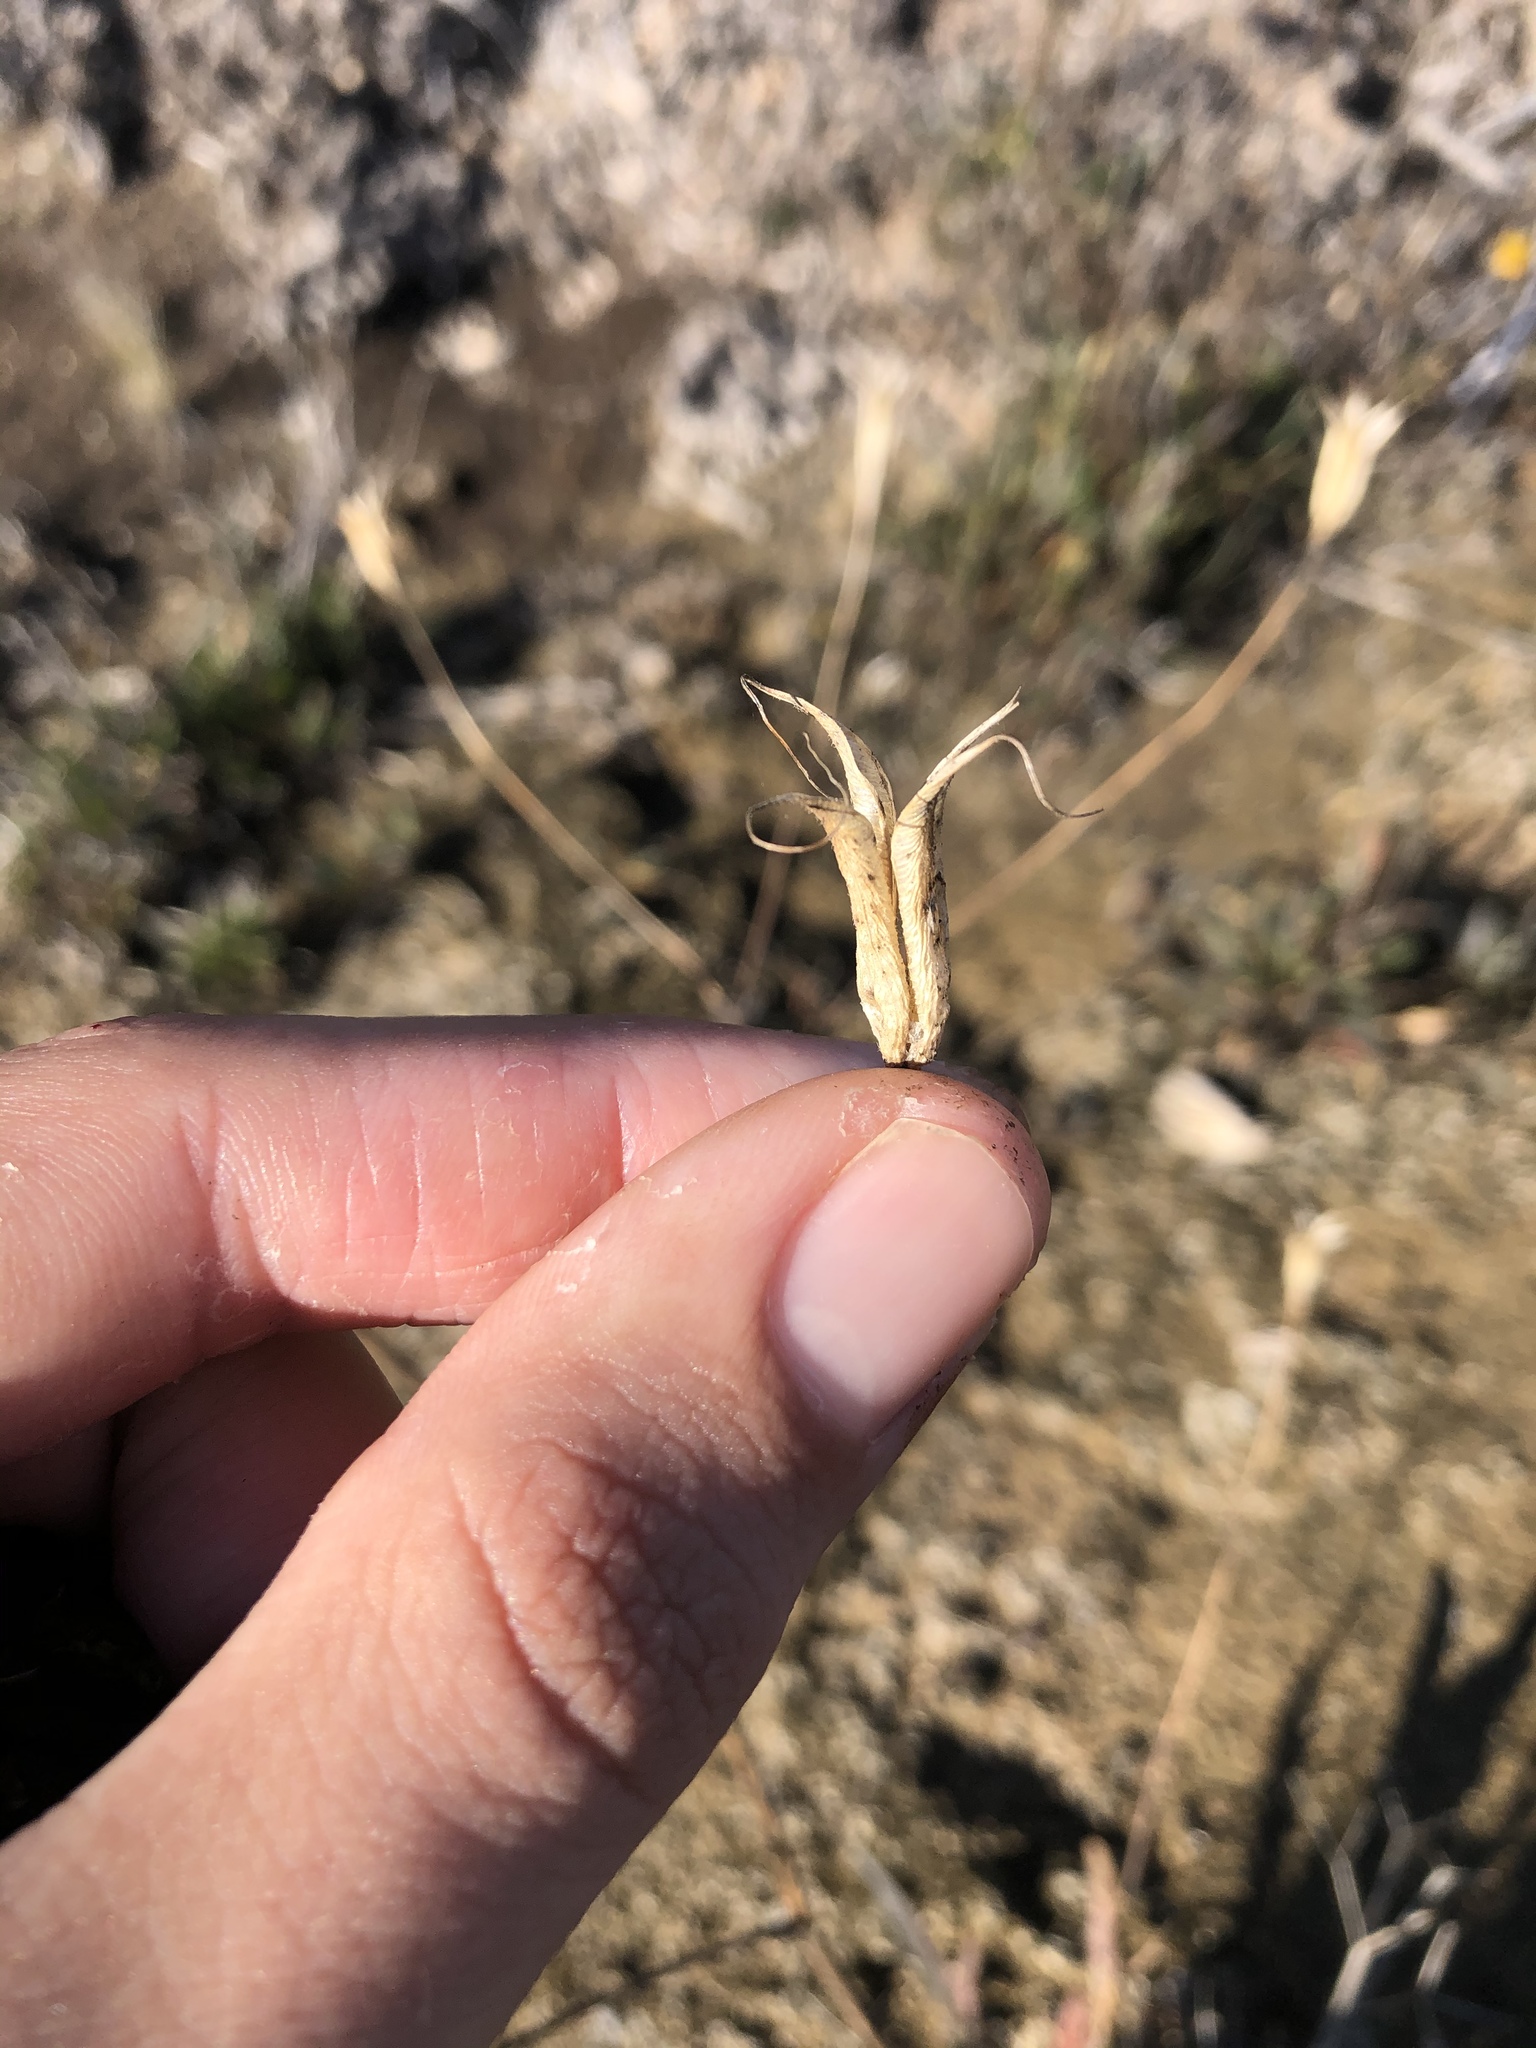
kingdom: Plantae
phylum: Tracheophyta
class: Magnoliopsida
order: Ranunculales
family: Ranunculaceae
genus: Aquilegia
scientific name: Aquilegia eximia
